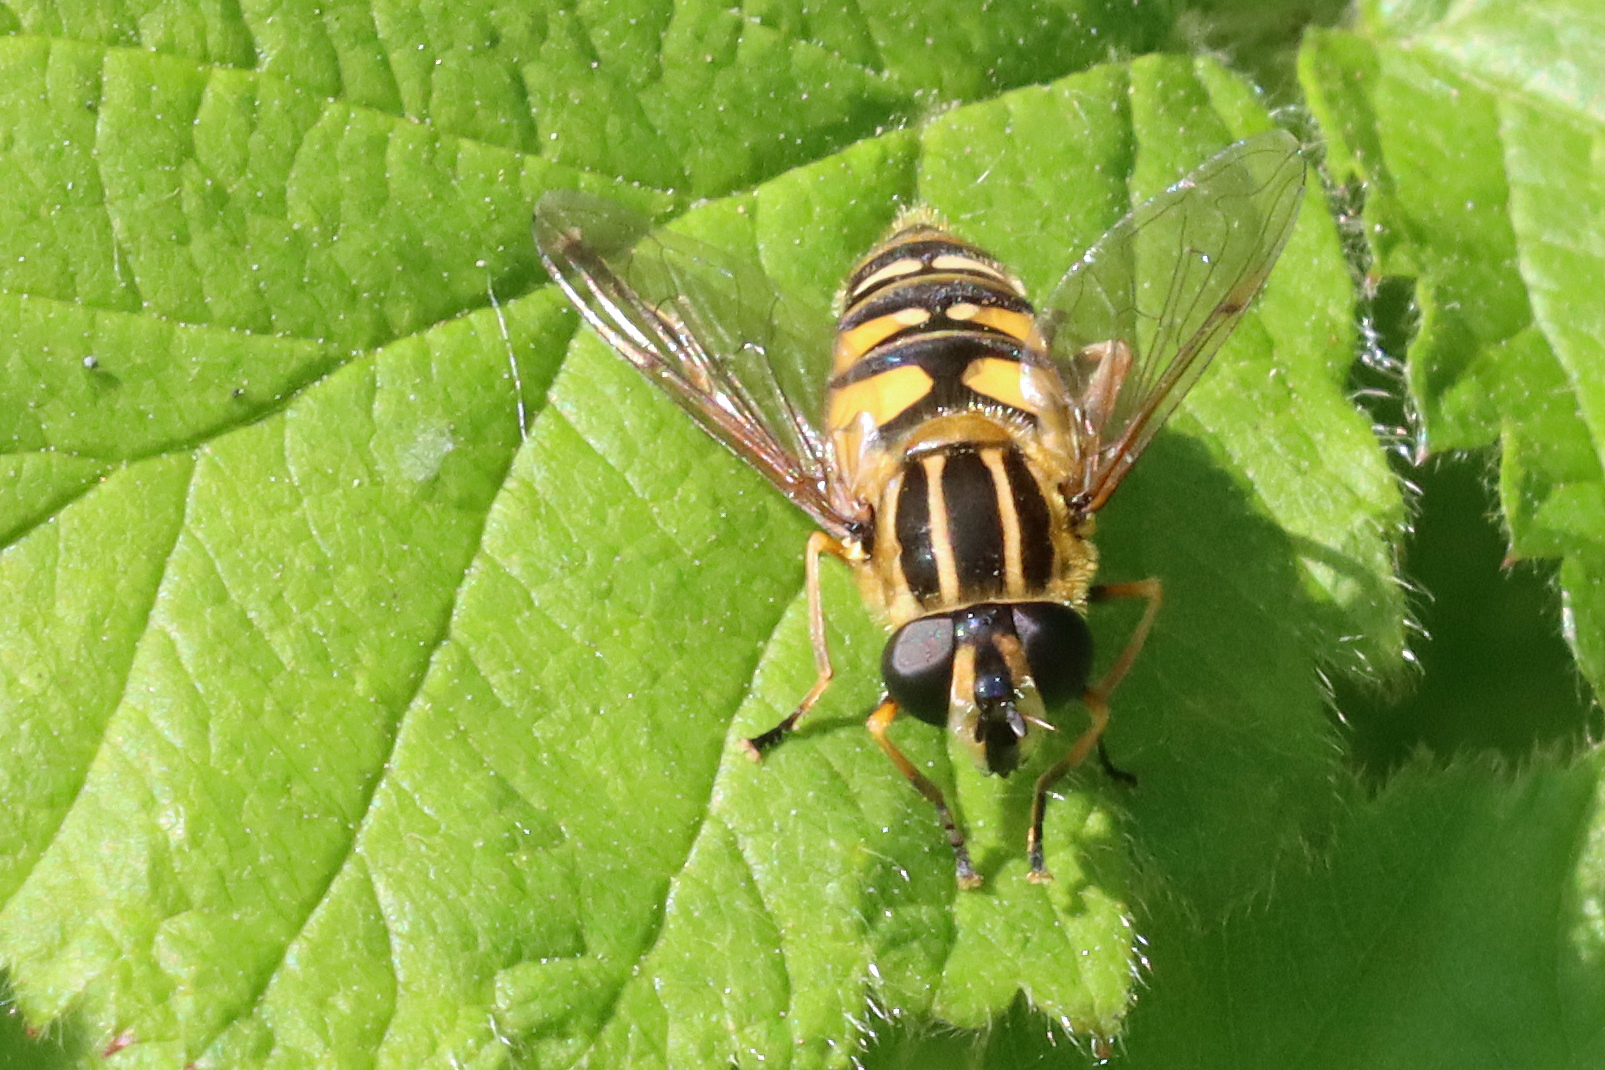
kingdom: Animalia
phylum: Arthropoda
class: Insecta
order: Diptera
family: Syrphidae
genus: Helophilus
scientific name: Helophilus pendulus
